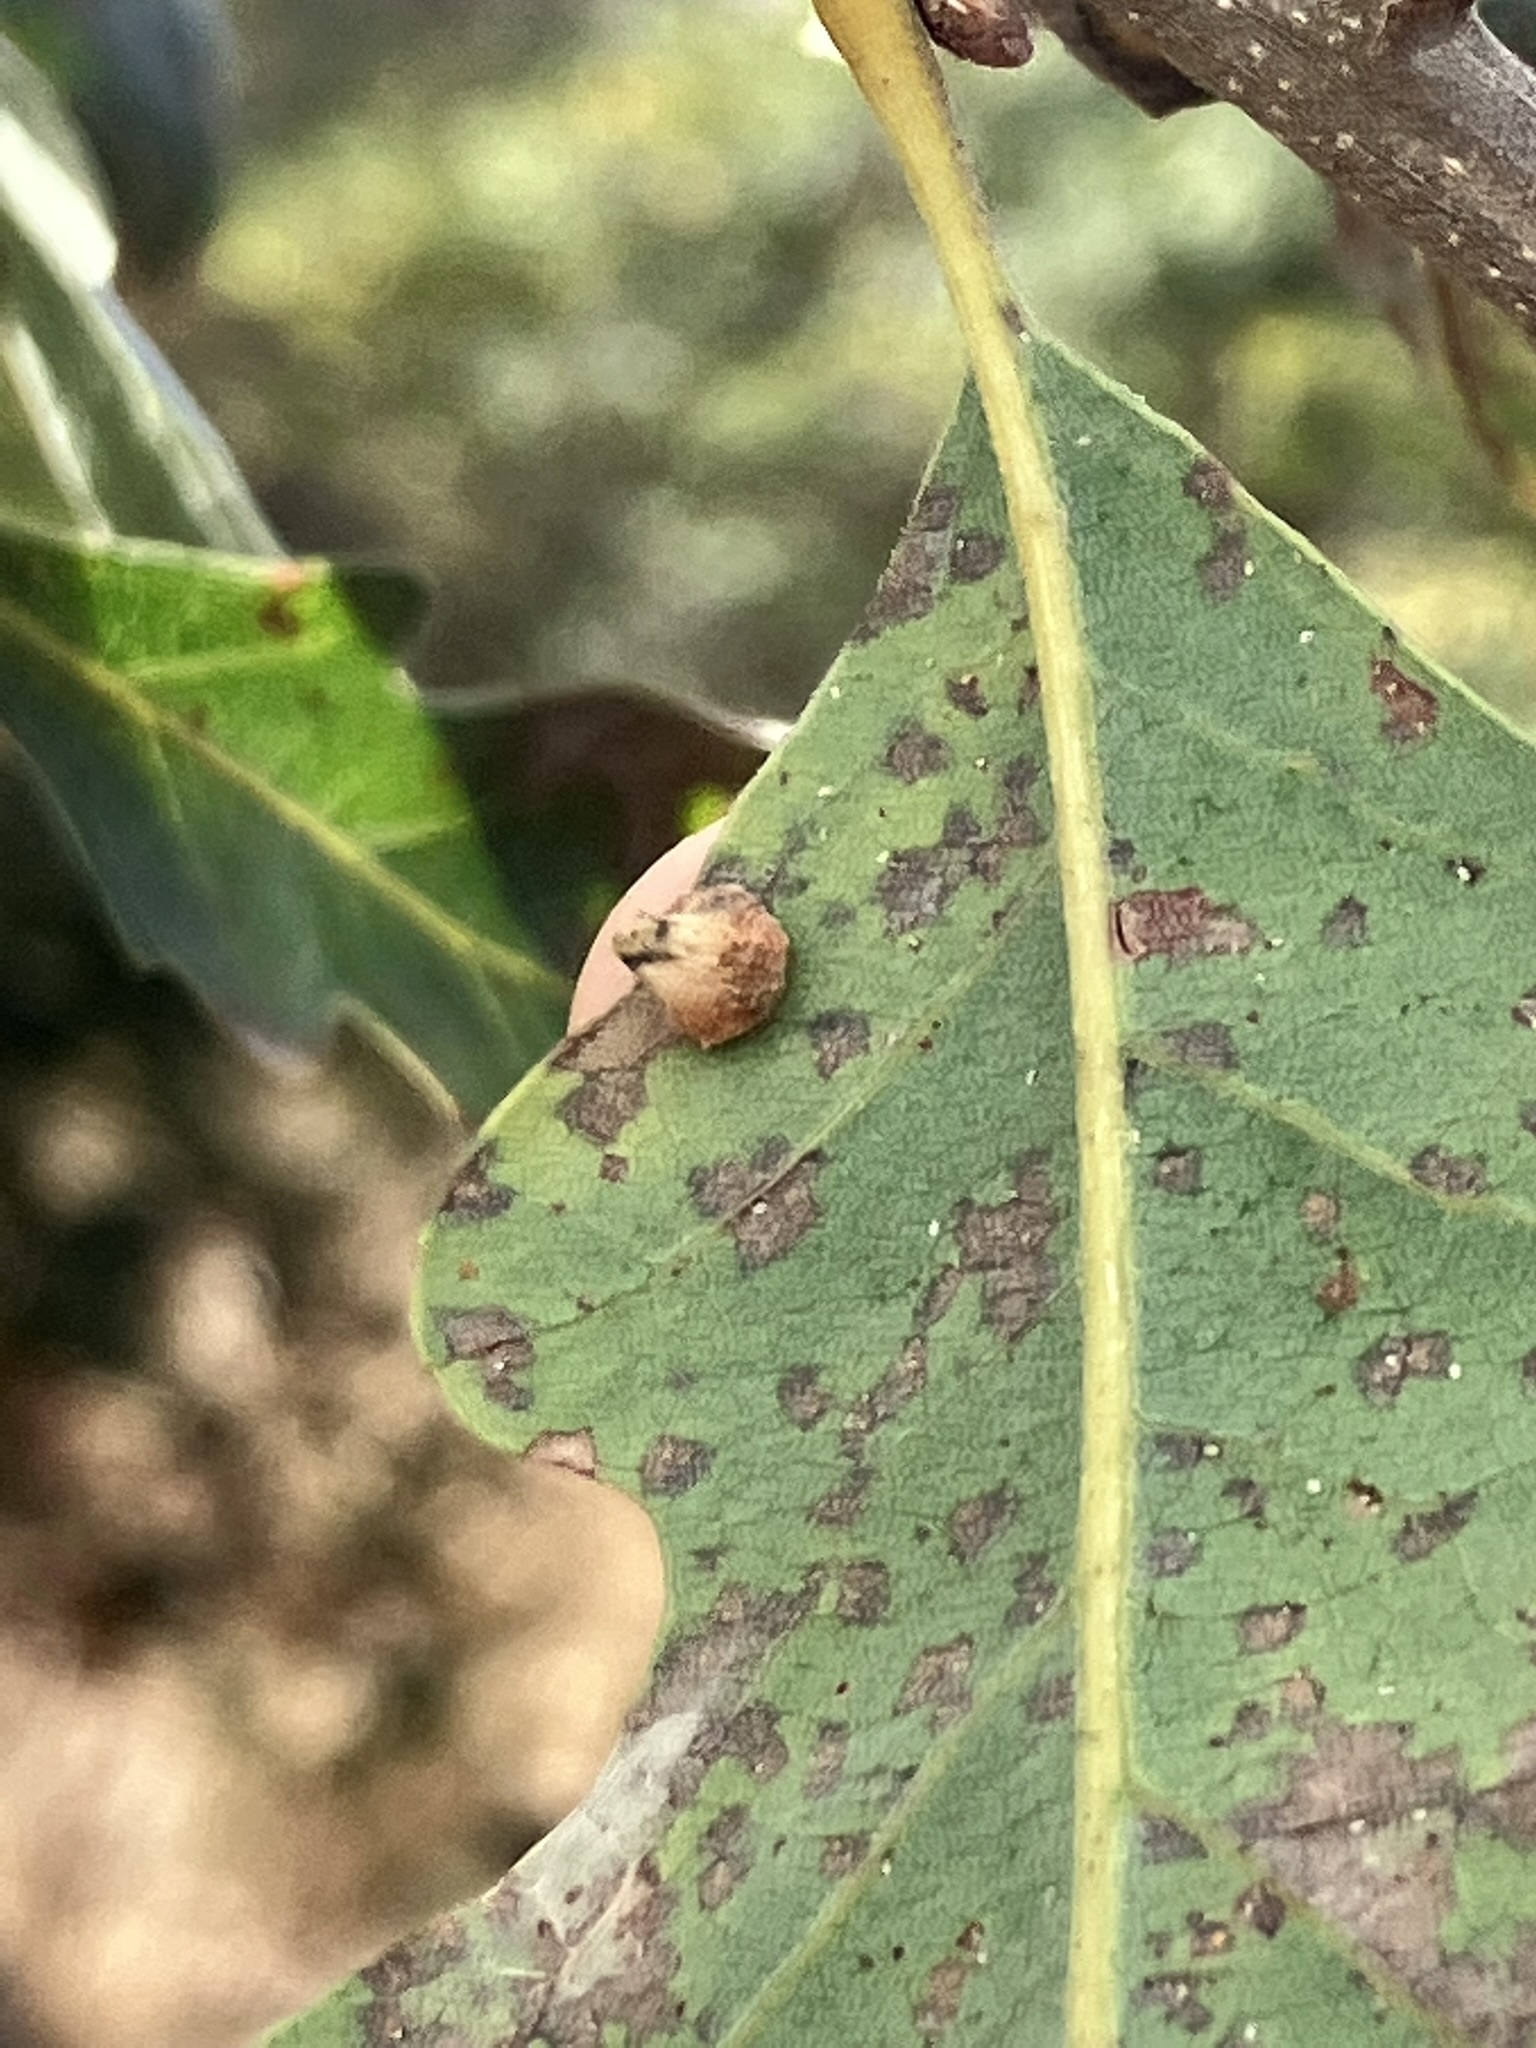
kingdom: Animalia
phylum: Arthropoda
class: Insecta
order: Hymenoptera
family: Cynipidae
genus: Andricus
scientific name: Andricus
